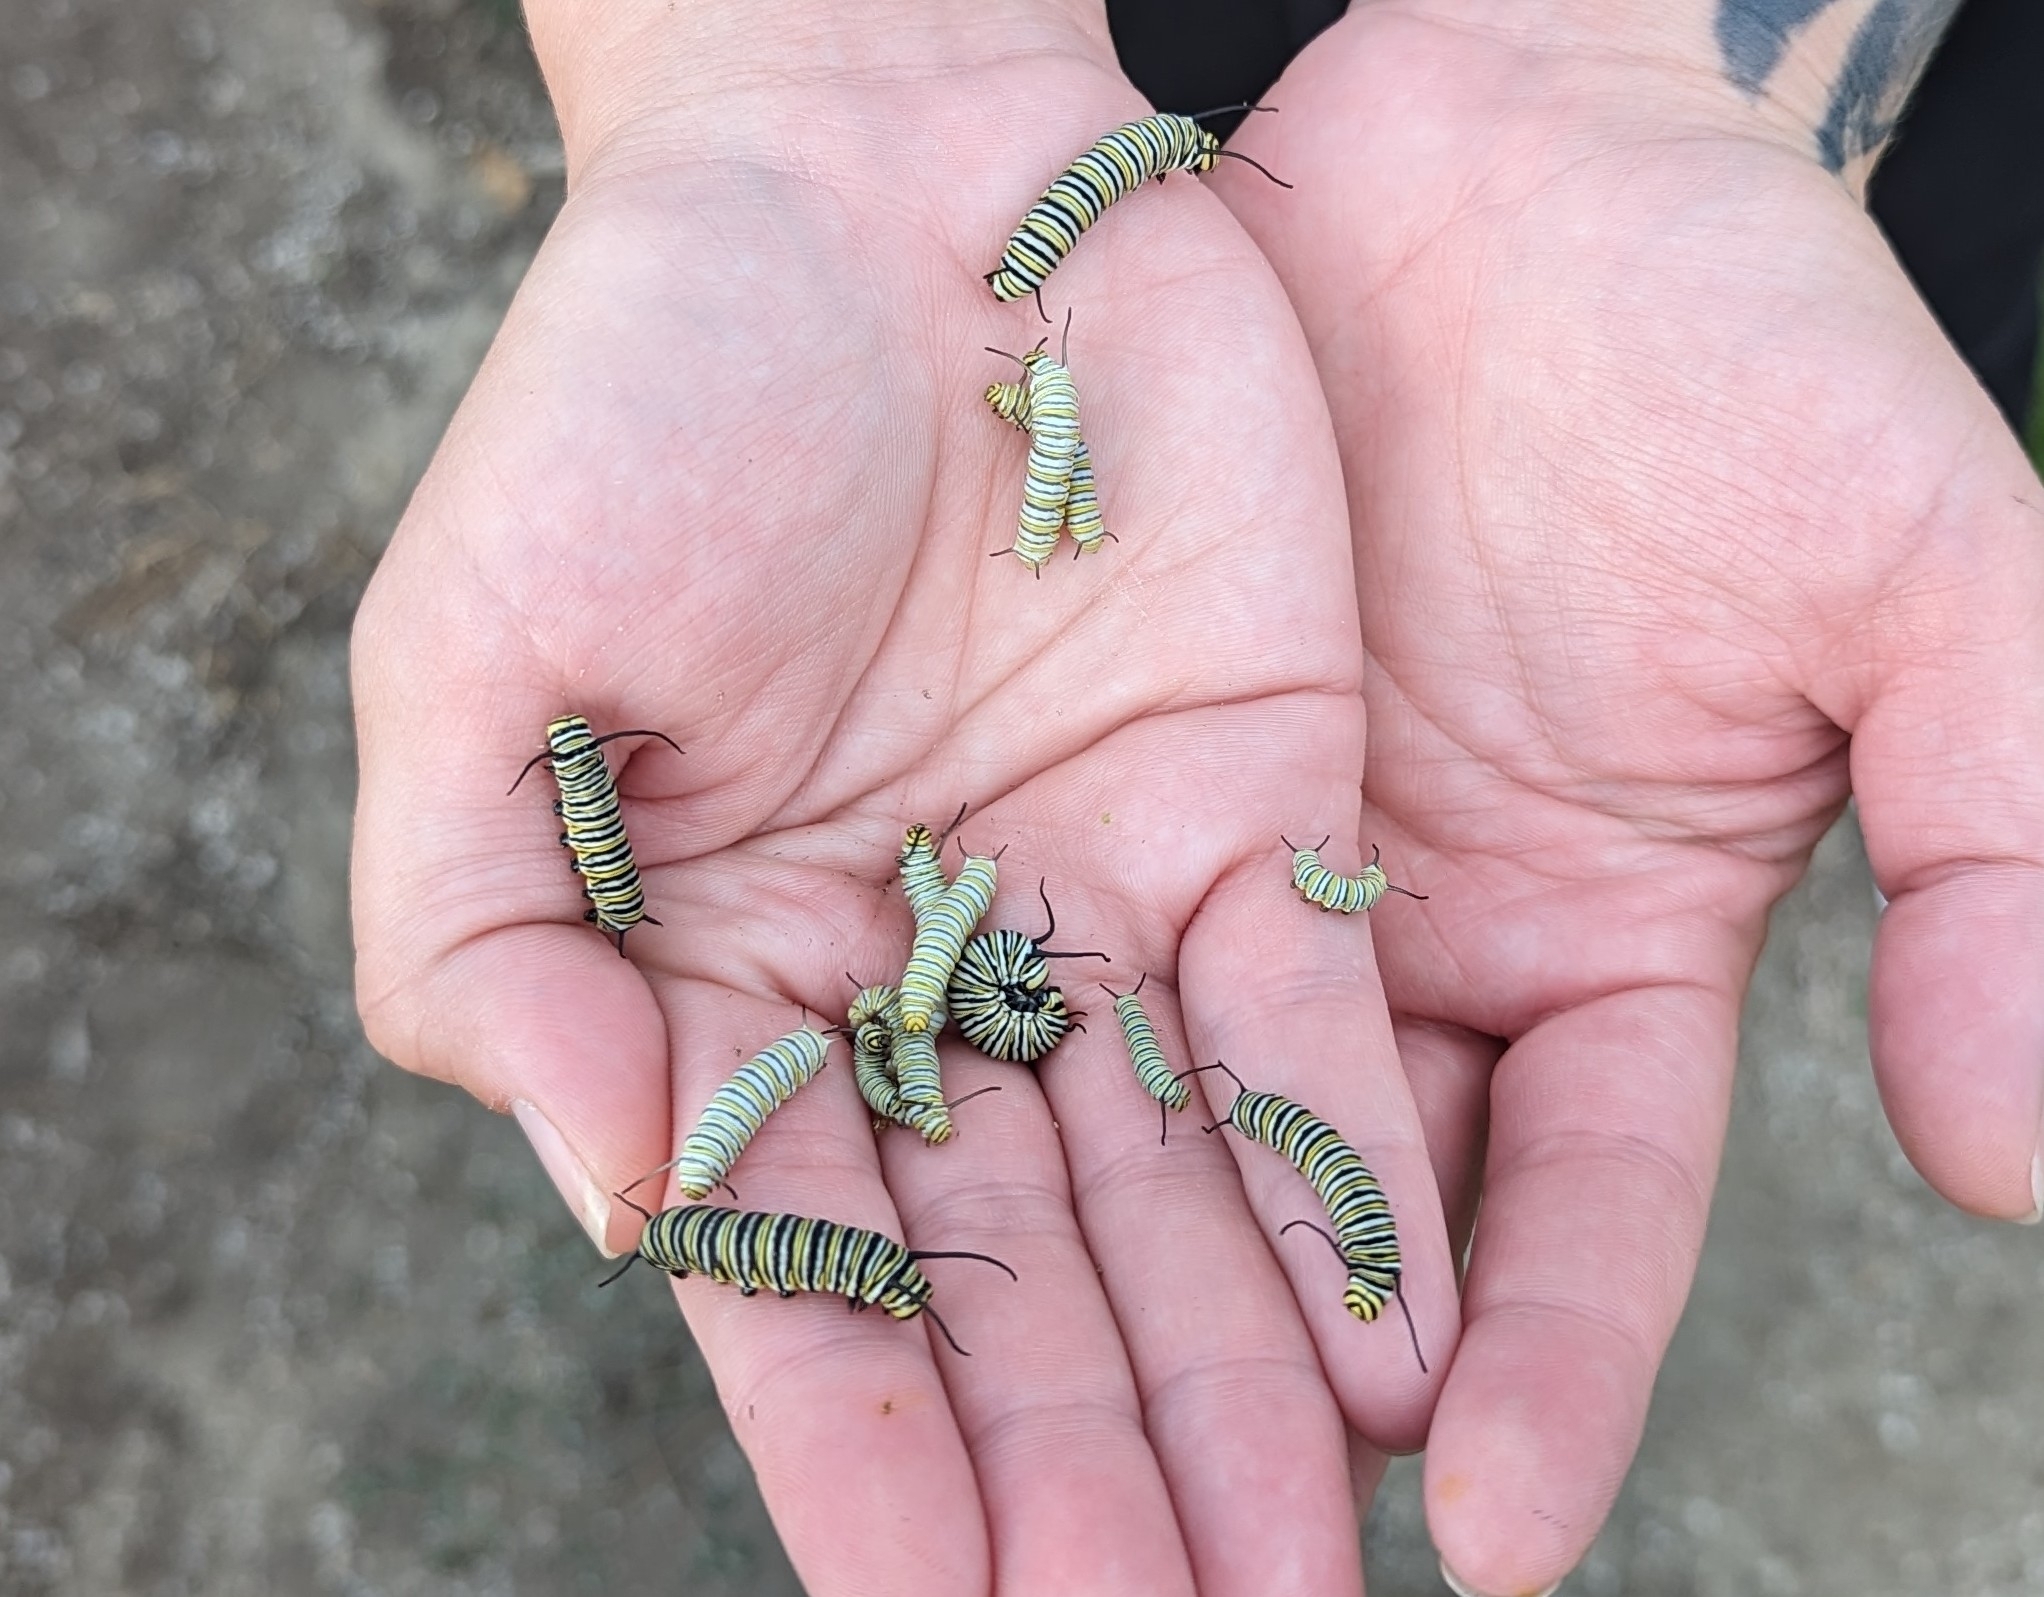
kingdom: Animalia
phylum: Arthropoda
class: Insecta
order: Lepidoptera
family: Nymphalidae
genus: Danaus
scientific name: Danaus plexippus
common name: Monarch
